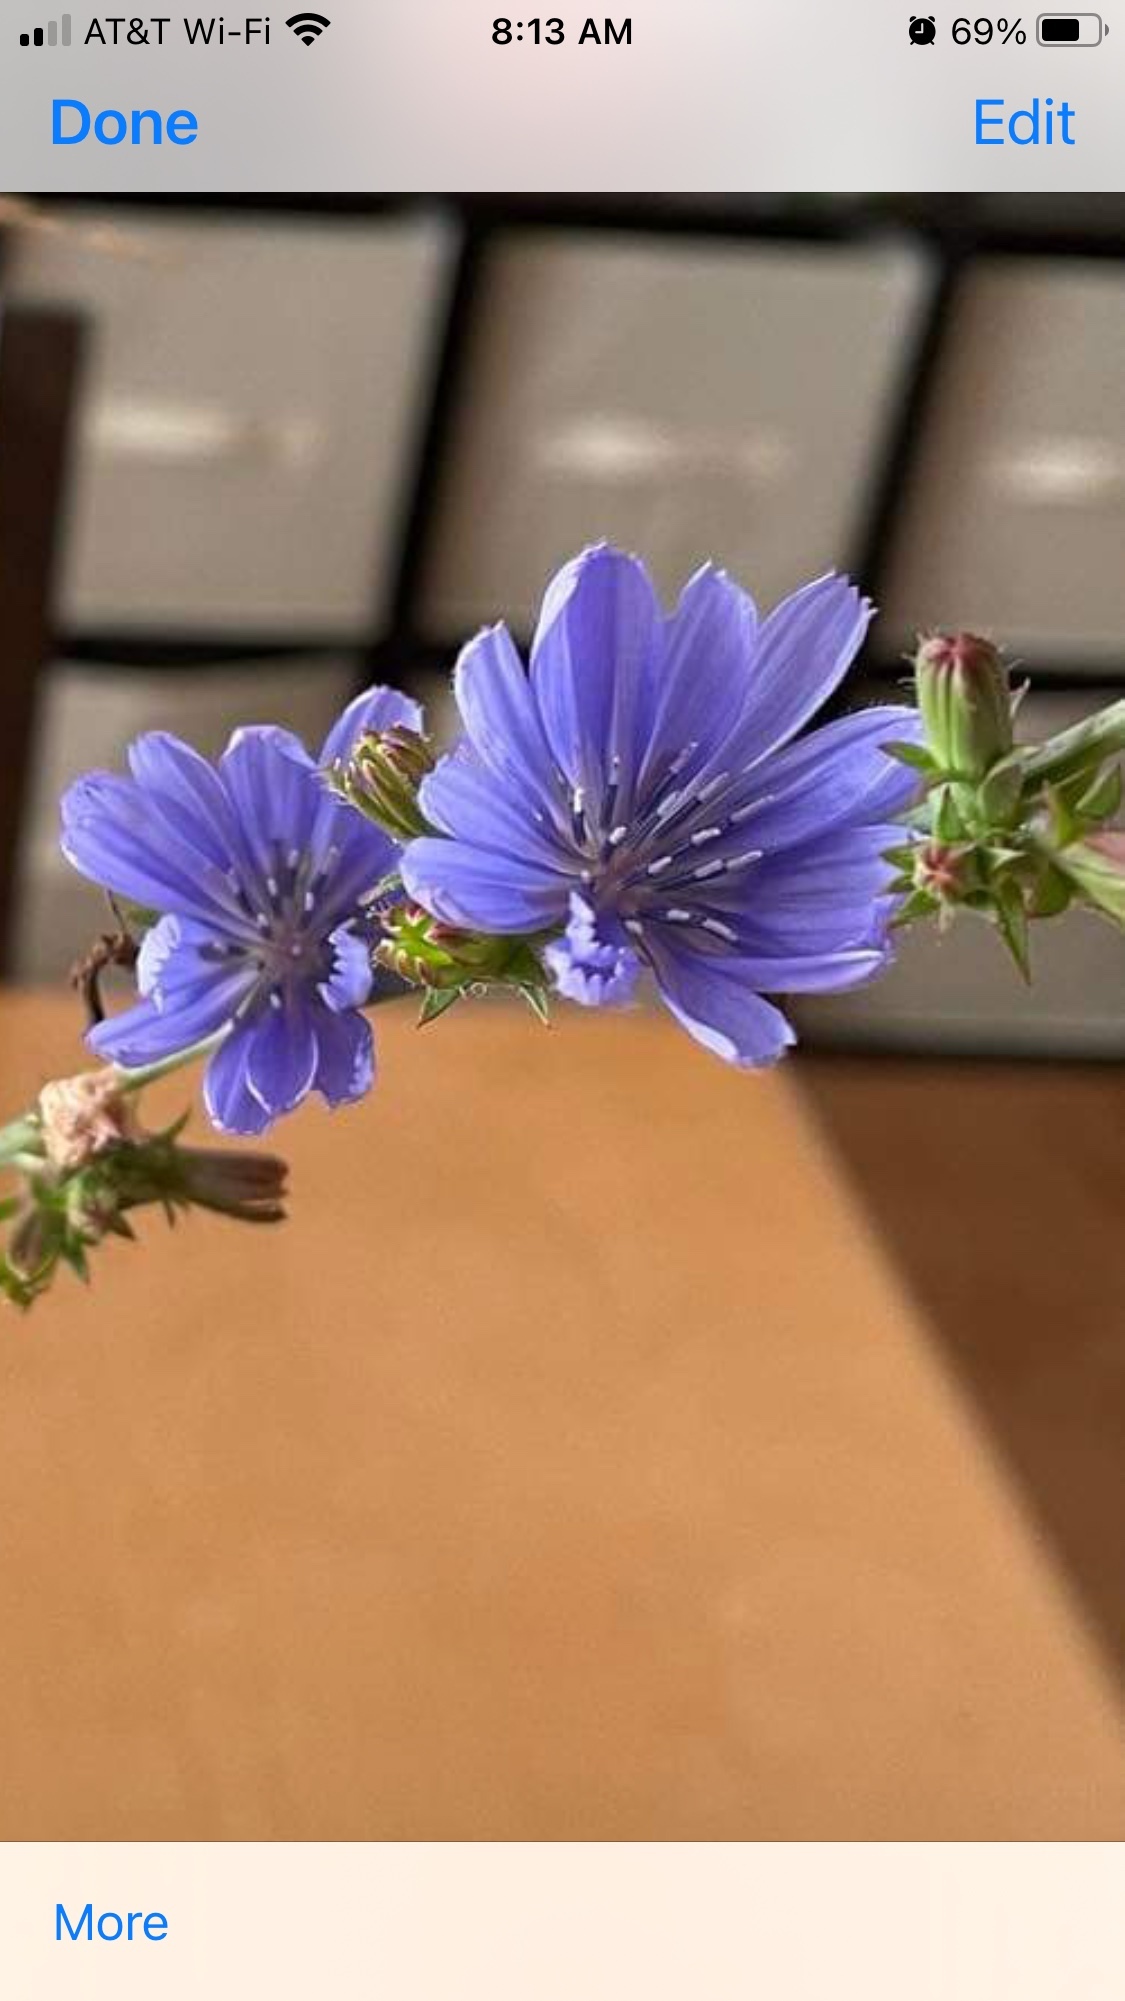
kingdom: Plantae
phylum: Tracheophyta
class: Magnoliopsida
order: Asterales
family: Asteraceae
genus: Cichorium
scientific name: Cichorium intybus
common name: Chicory
